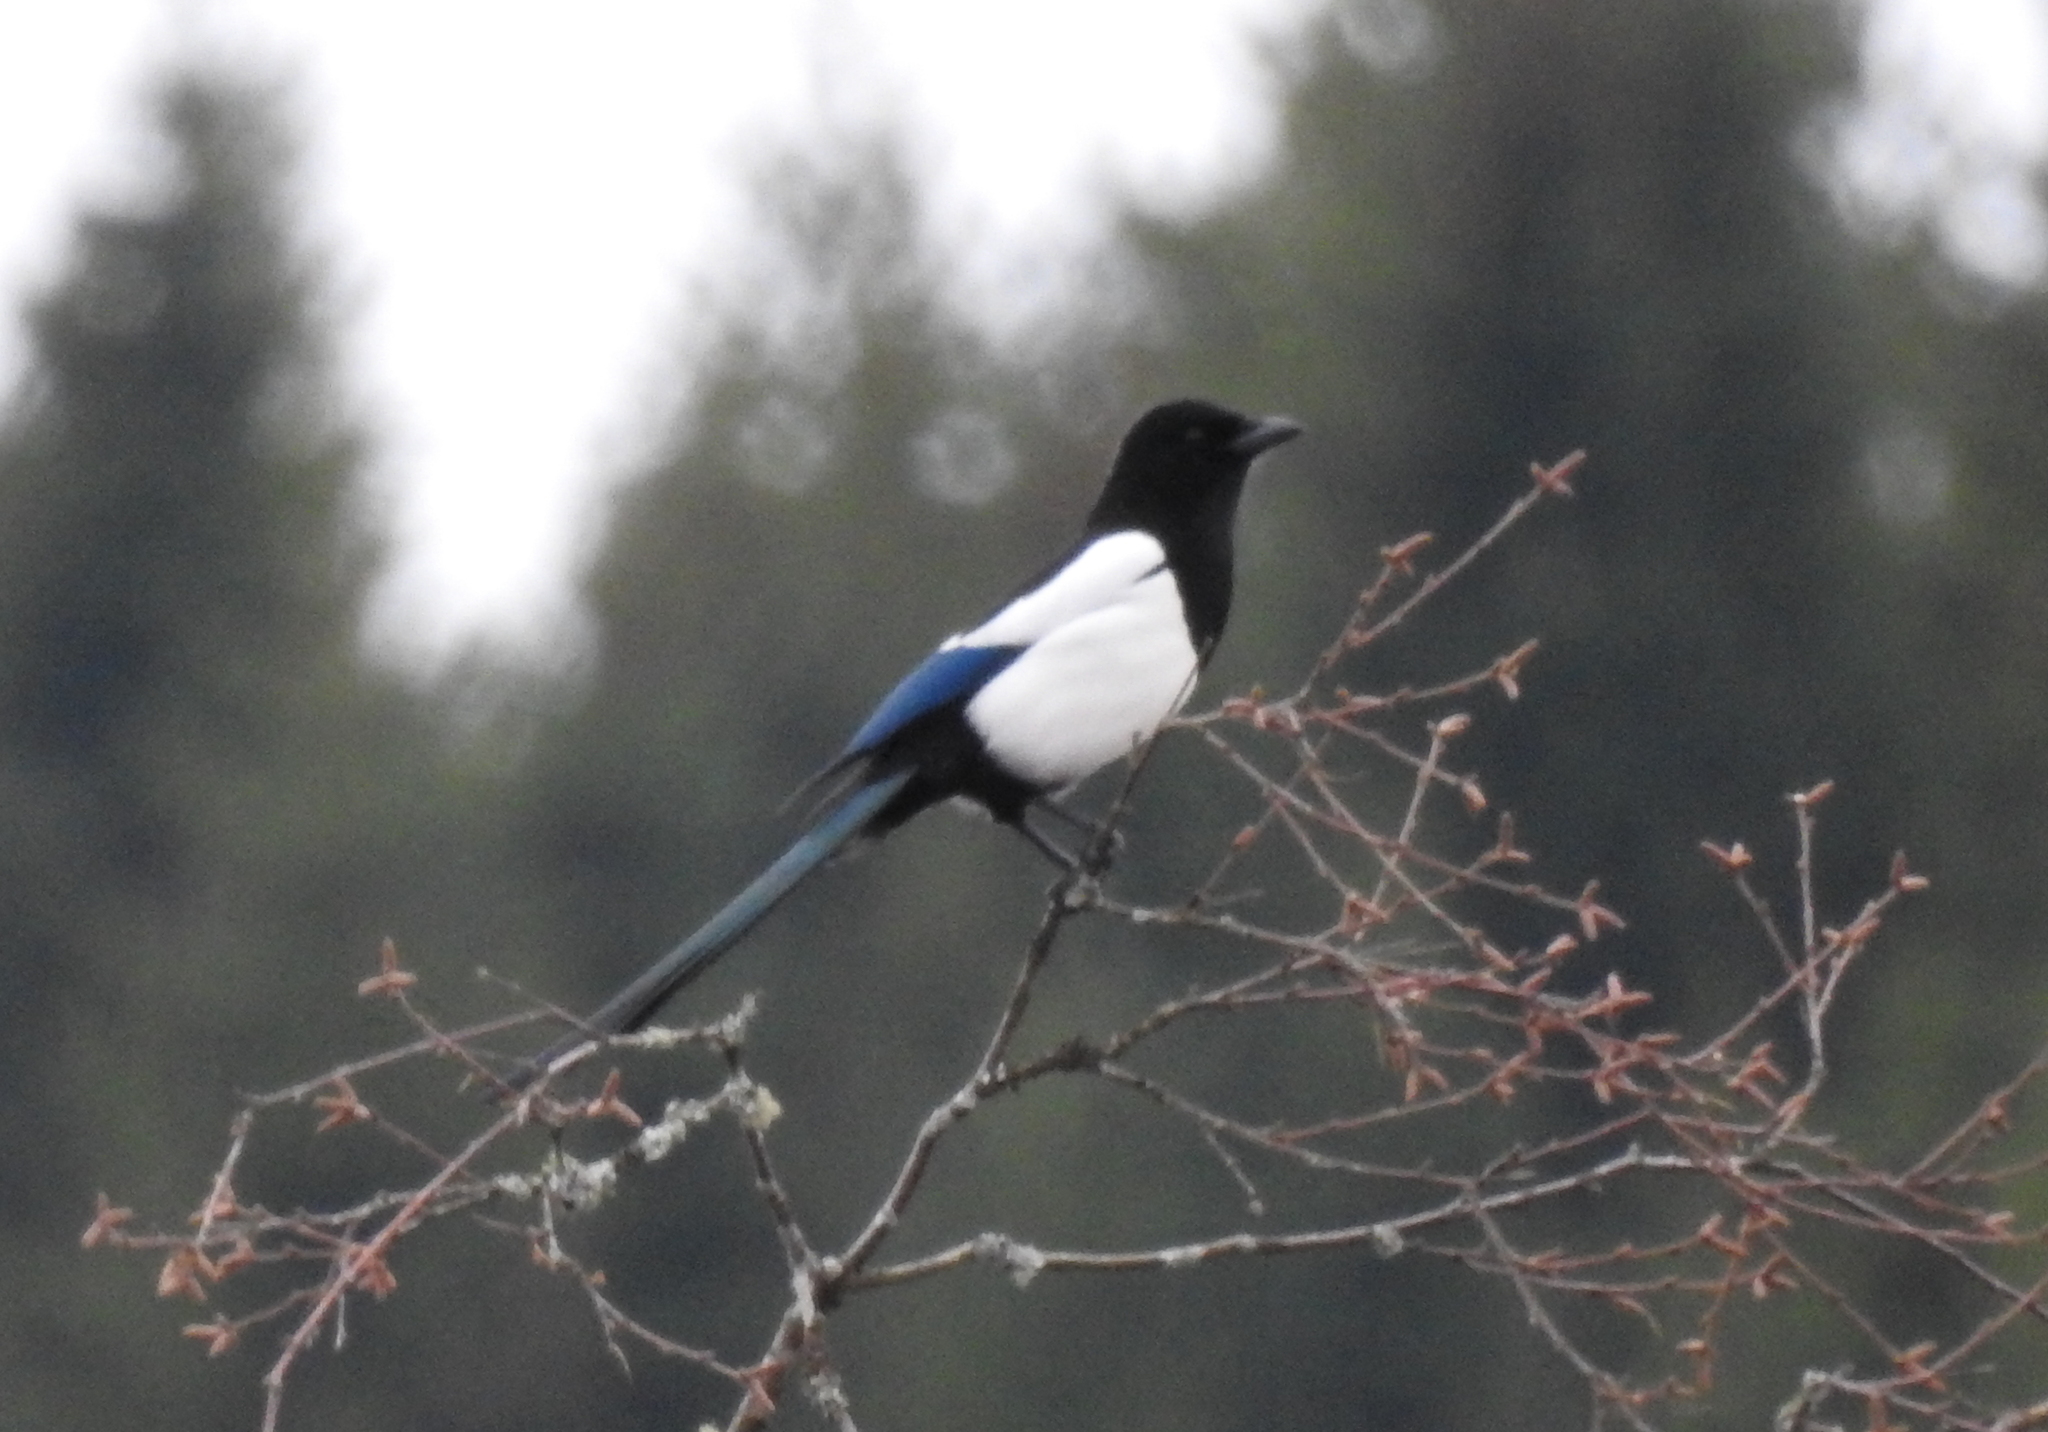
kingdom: Animalia
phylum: Chordata
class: Aves
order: Passeriformes
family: Corvidae
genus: Pica
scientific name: Pica pica
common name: Eurasian magpie
